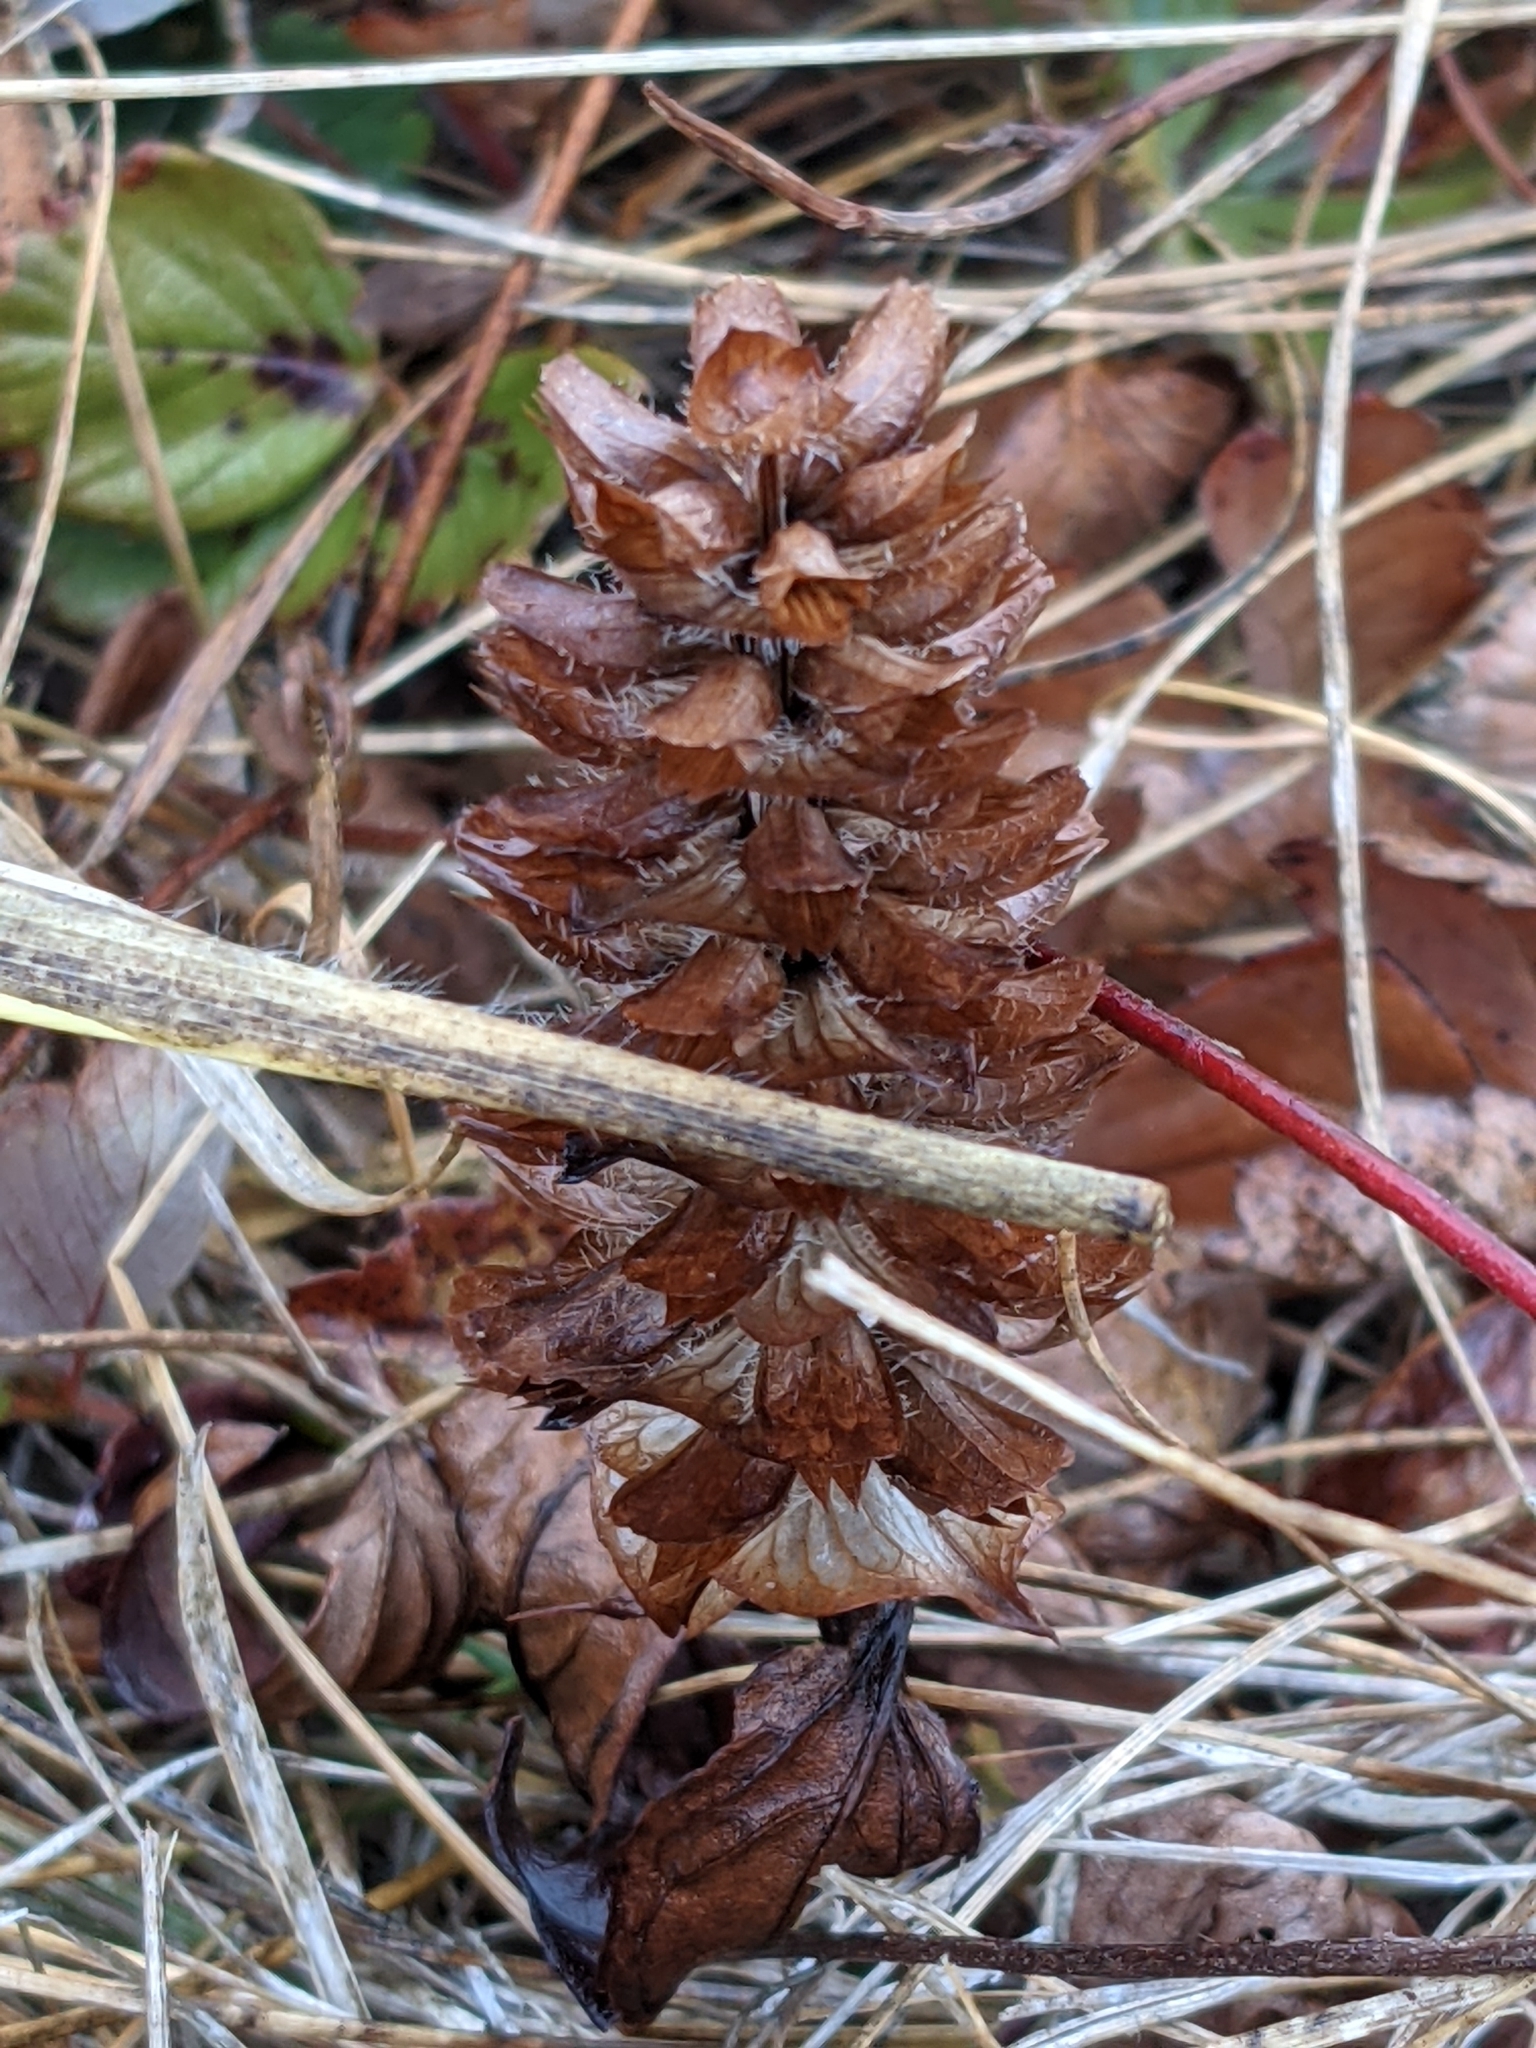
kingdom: Plantae
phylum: Tracheophyta
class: Magnoliopsida
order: Lamiales
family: Lamiaceae
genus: Prunella
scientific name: Prunella vulgaris
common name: Heal-all
